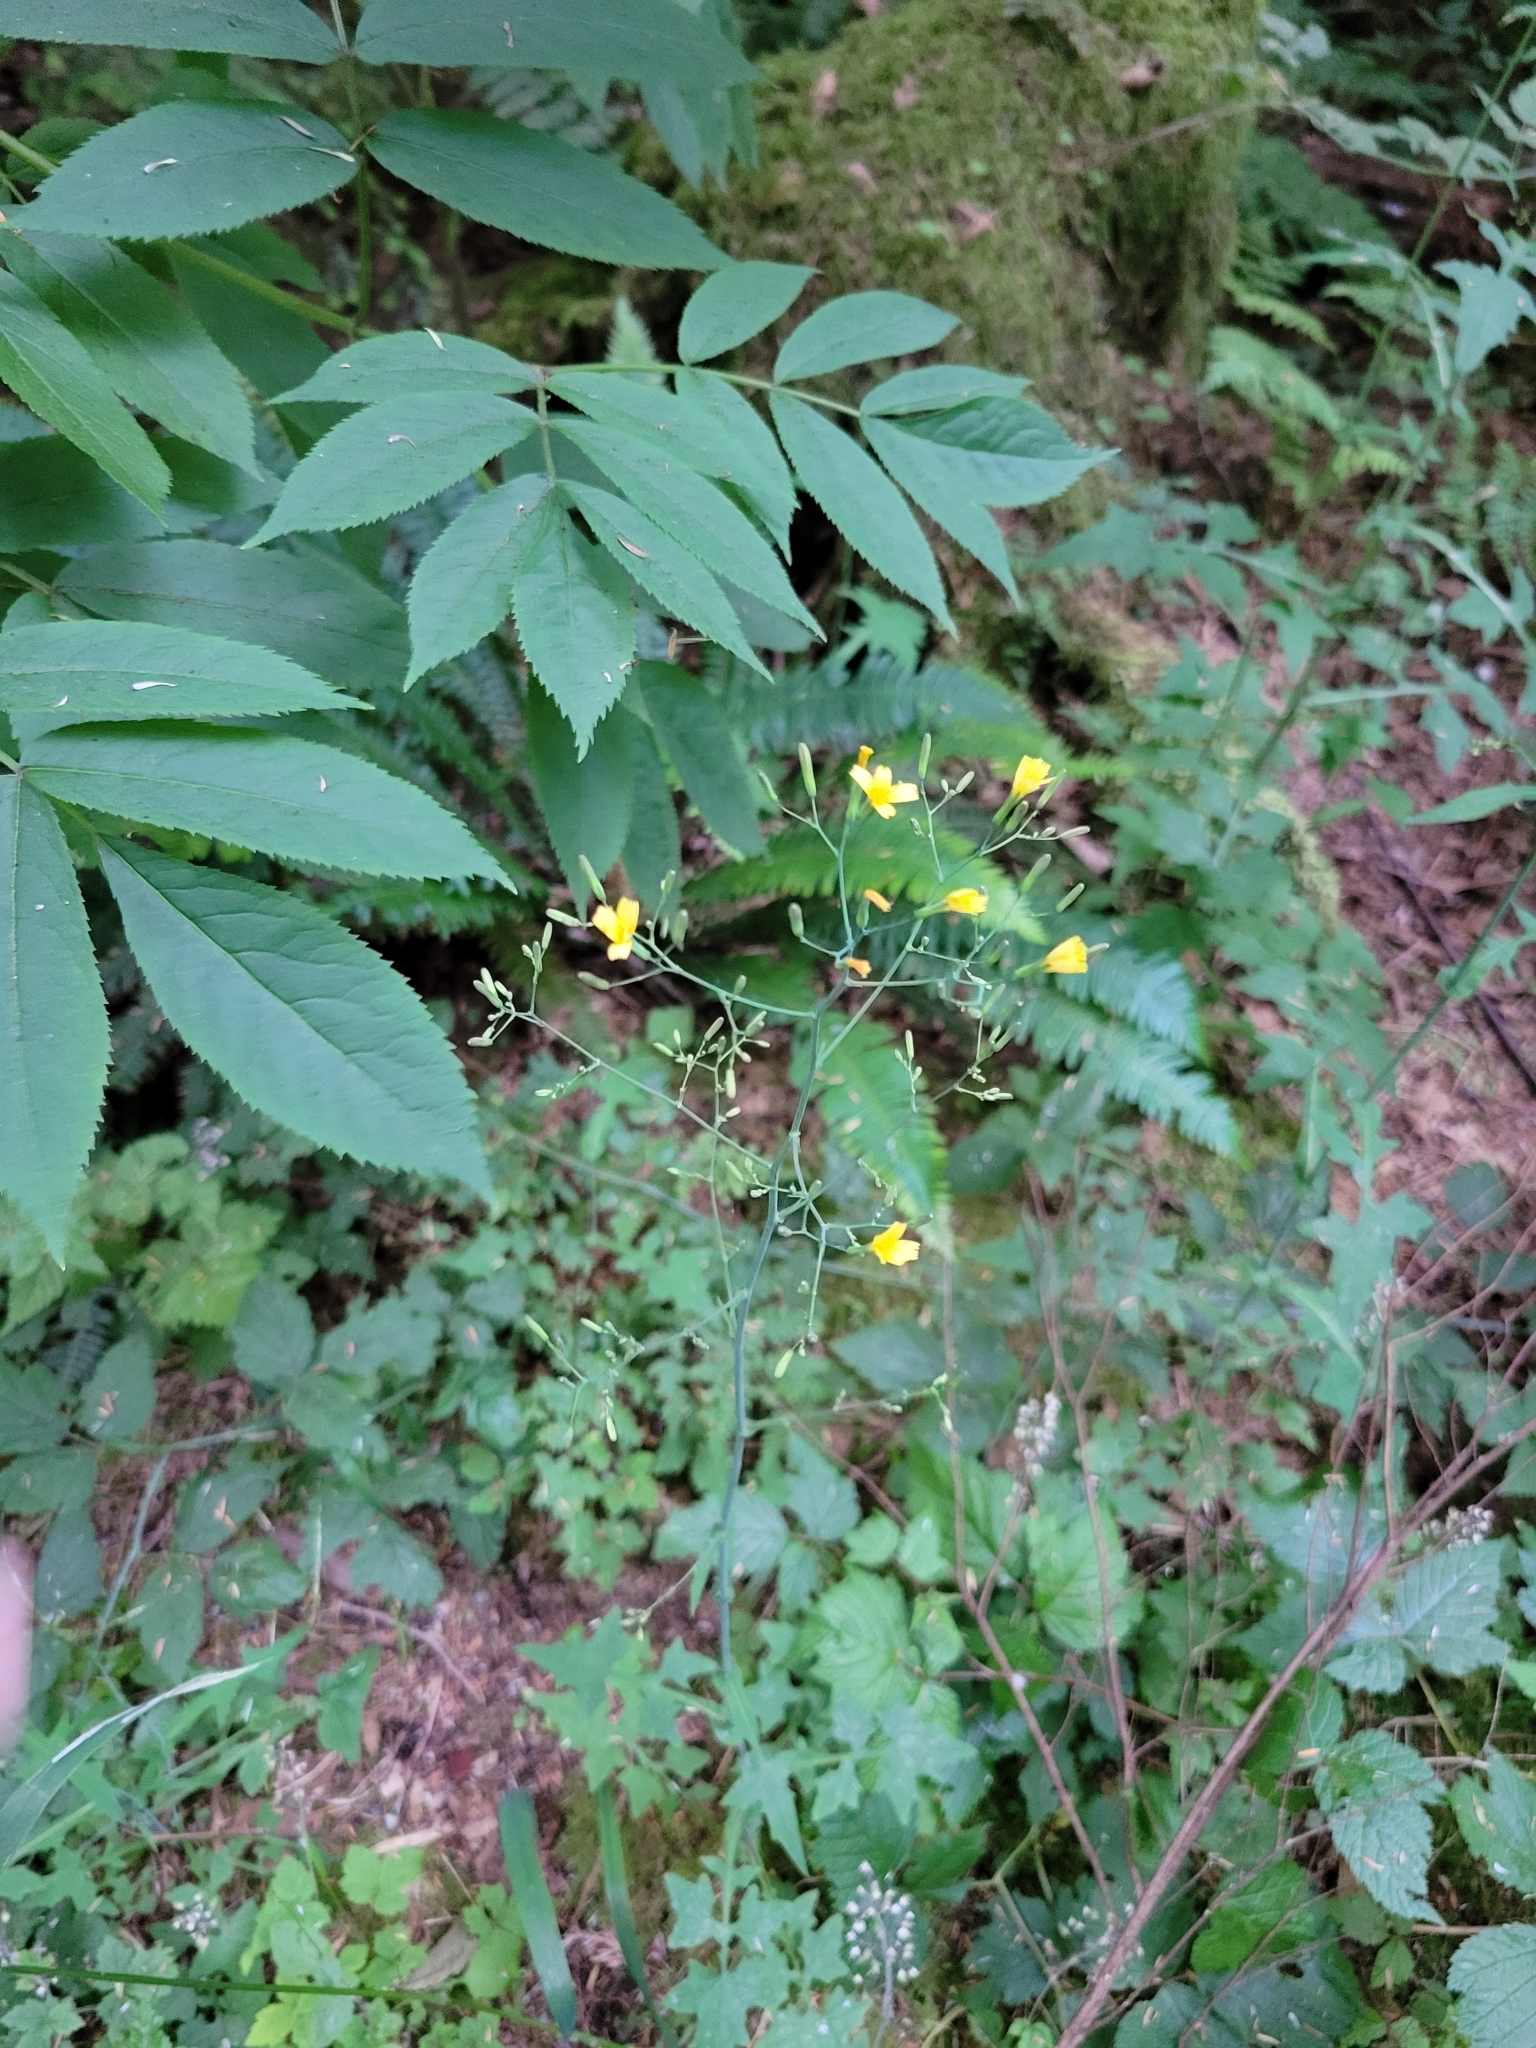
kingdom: Plantae
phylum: Tracheophyta
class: Magnoliopsida
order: Asterales
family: Asteraceae
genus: Mycelis
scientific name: Mycelis muralis
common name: Wall lettuce
